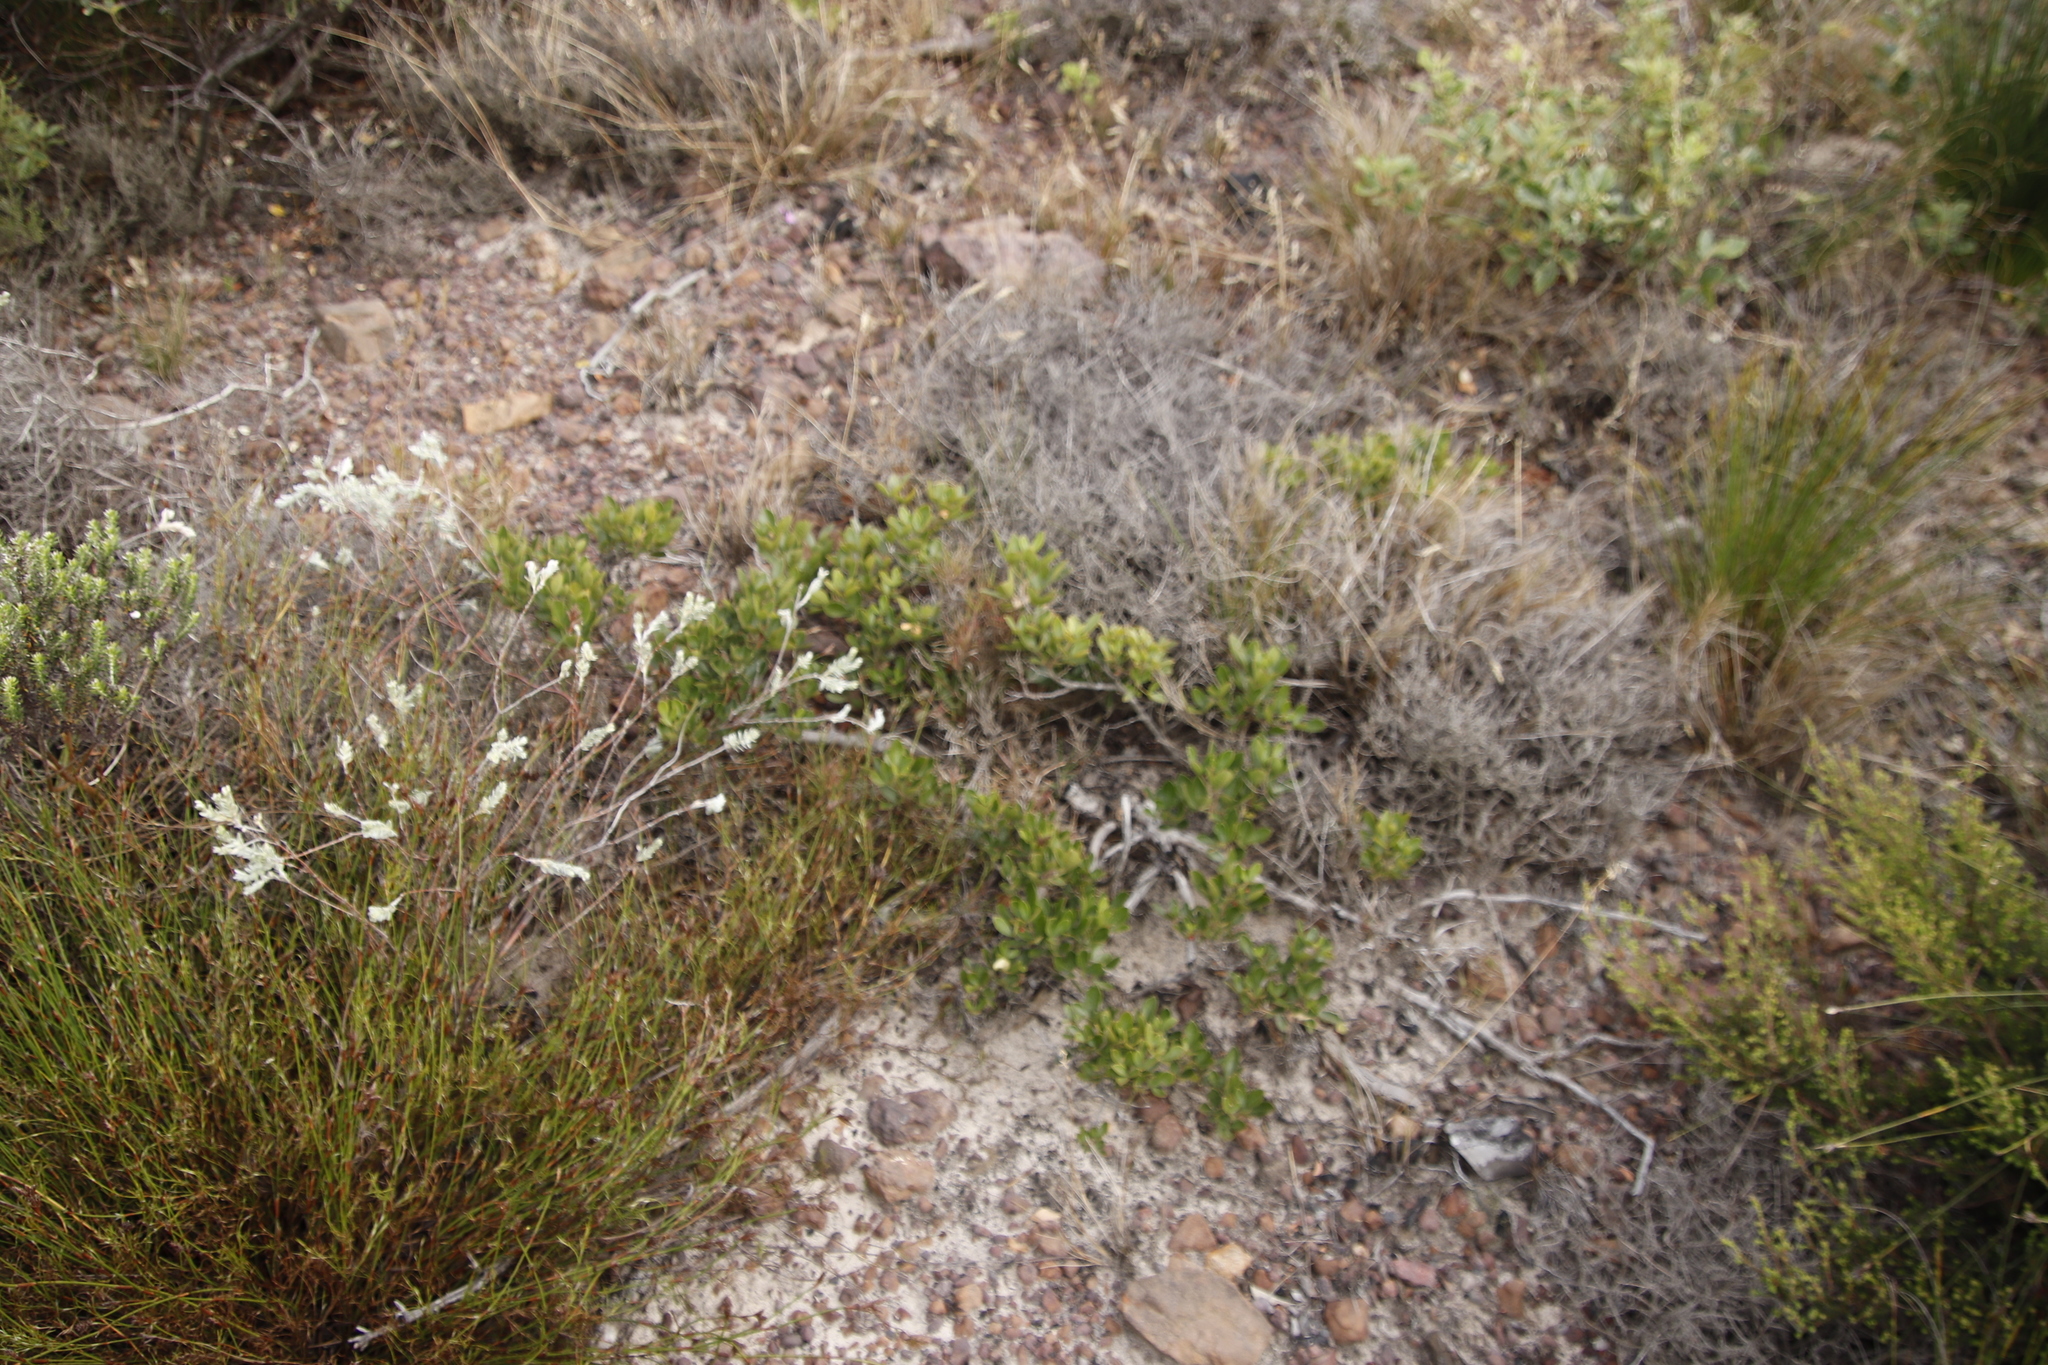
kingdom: Plantae
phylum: Tracheophyta
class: Magnoliopsida
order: Sapindales
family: Anacardiaceae
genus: Searsia
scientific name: Searsia laevigata
